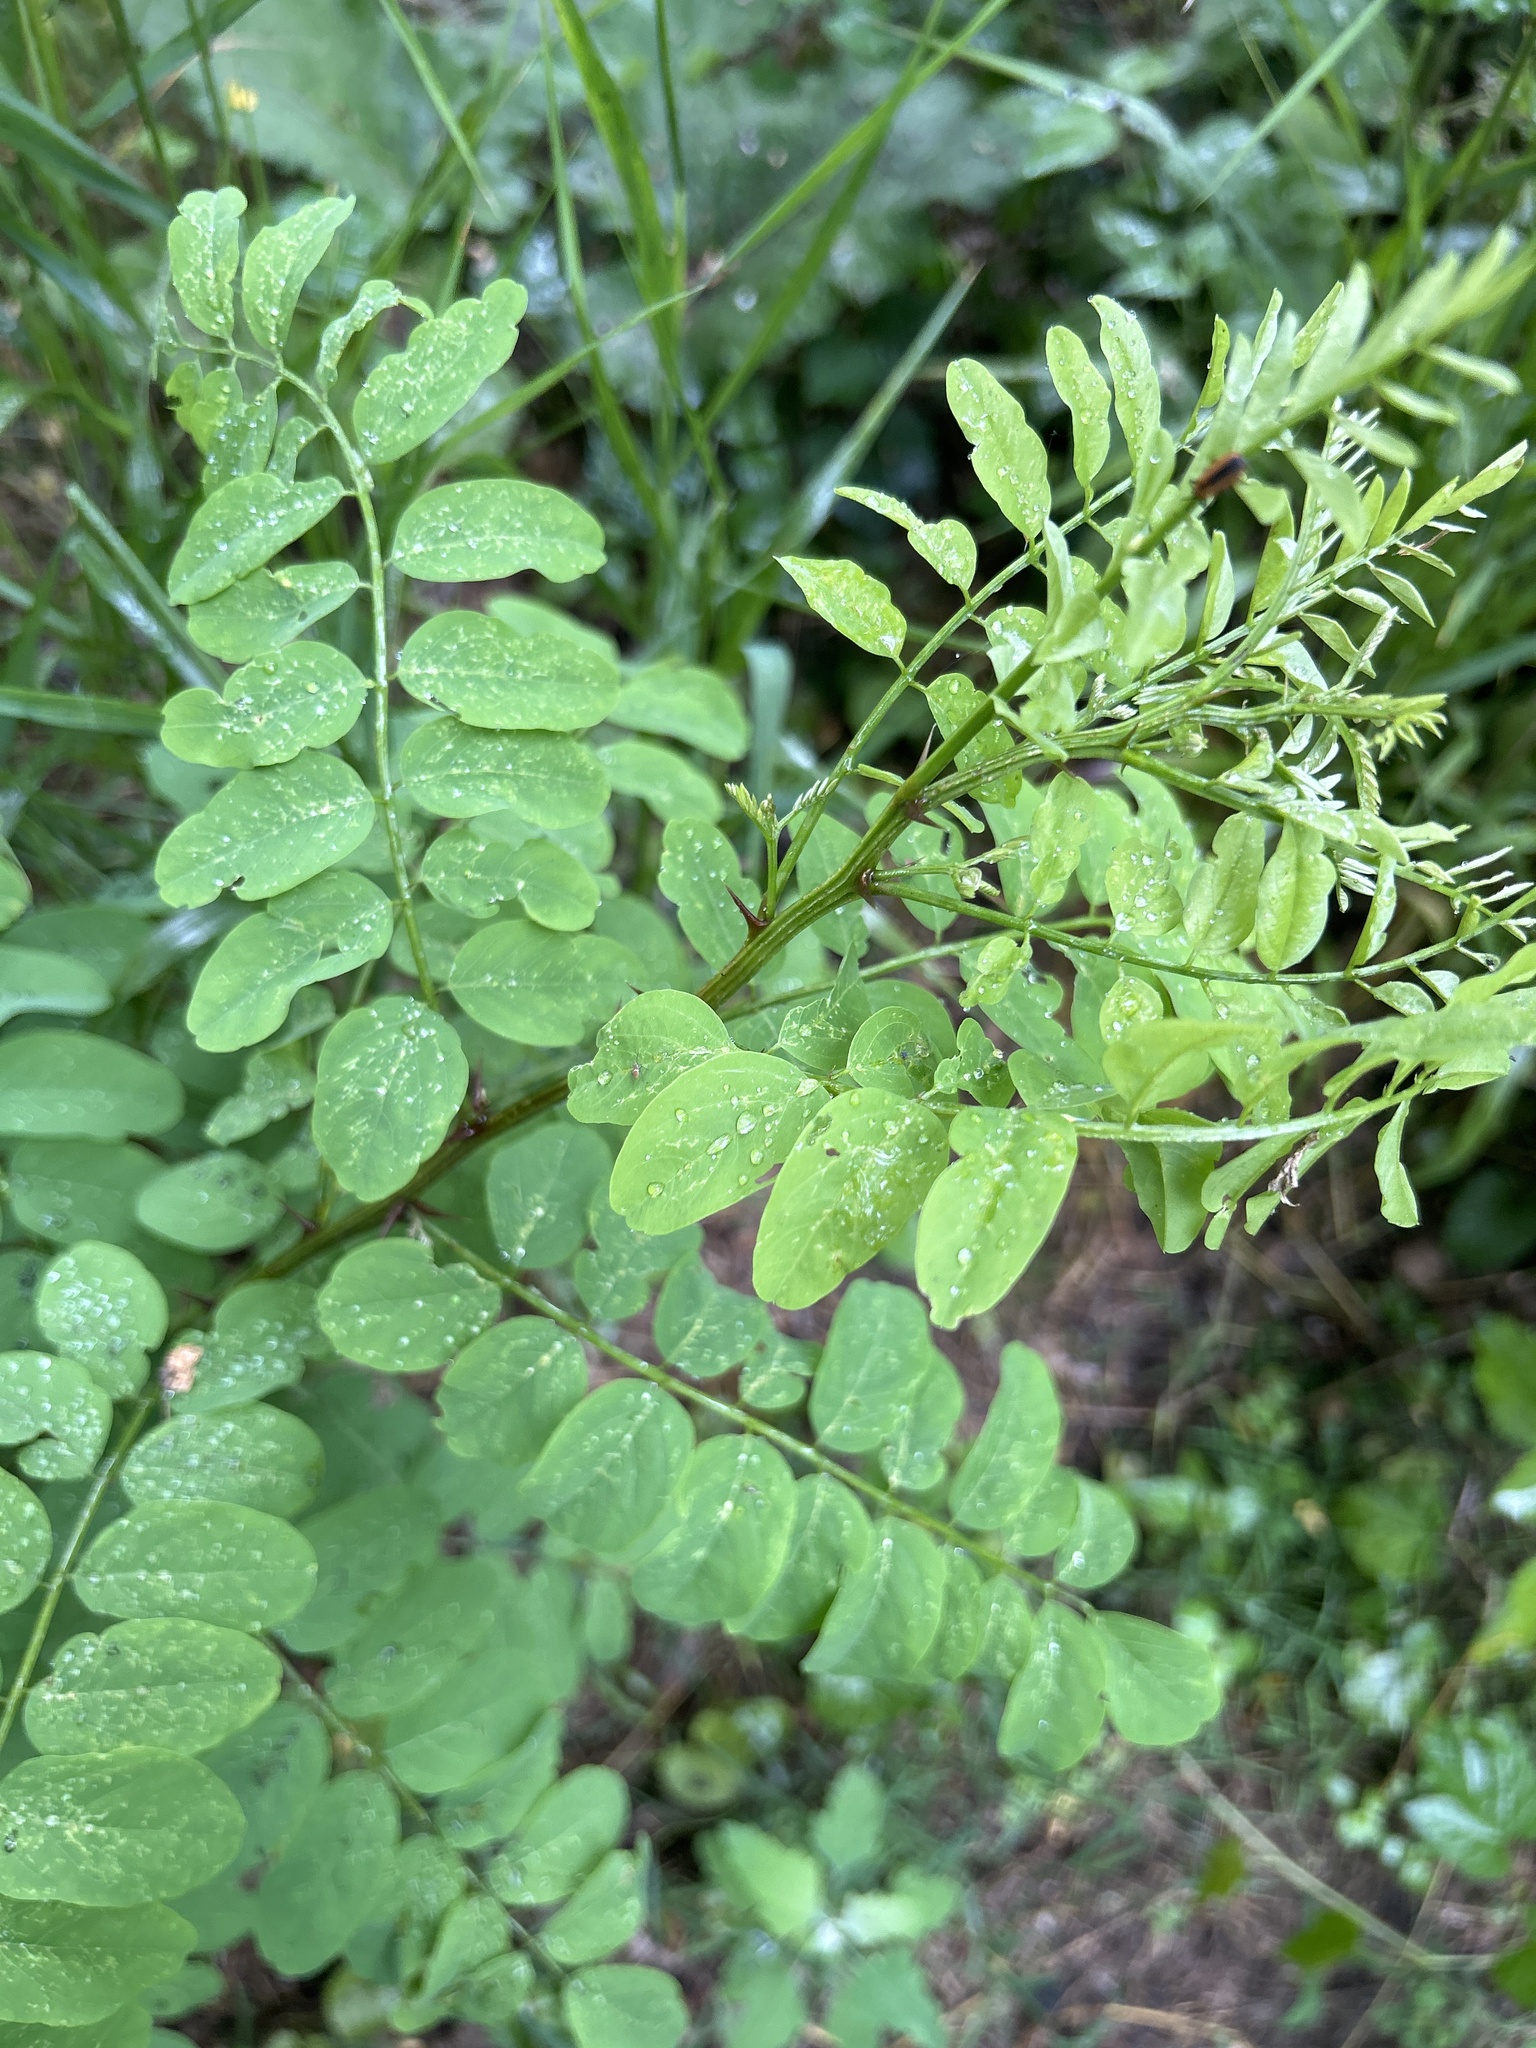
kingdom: Plantae
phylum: Tracheophyta
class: Magnoliopsida
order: Fabales
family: Fabaceae
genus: Robinia
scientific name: Robinia pseudoacacia
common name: Black locust
